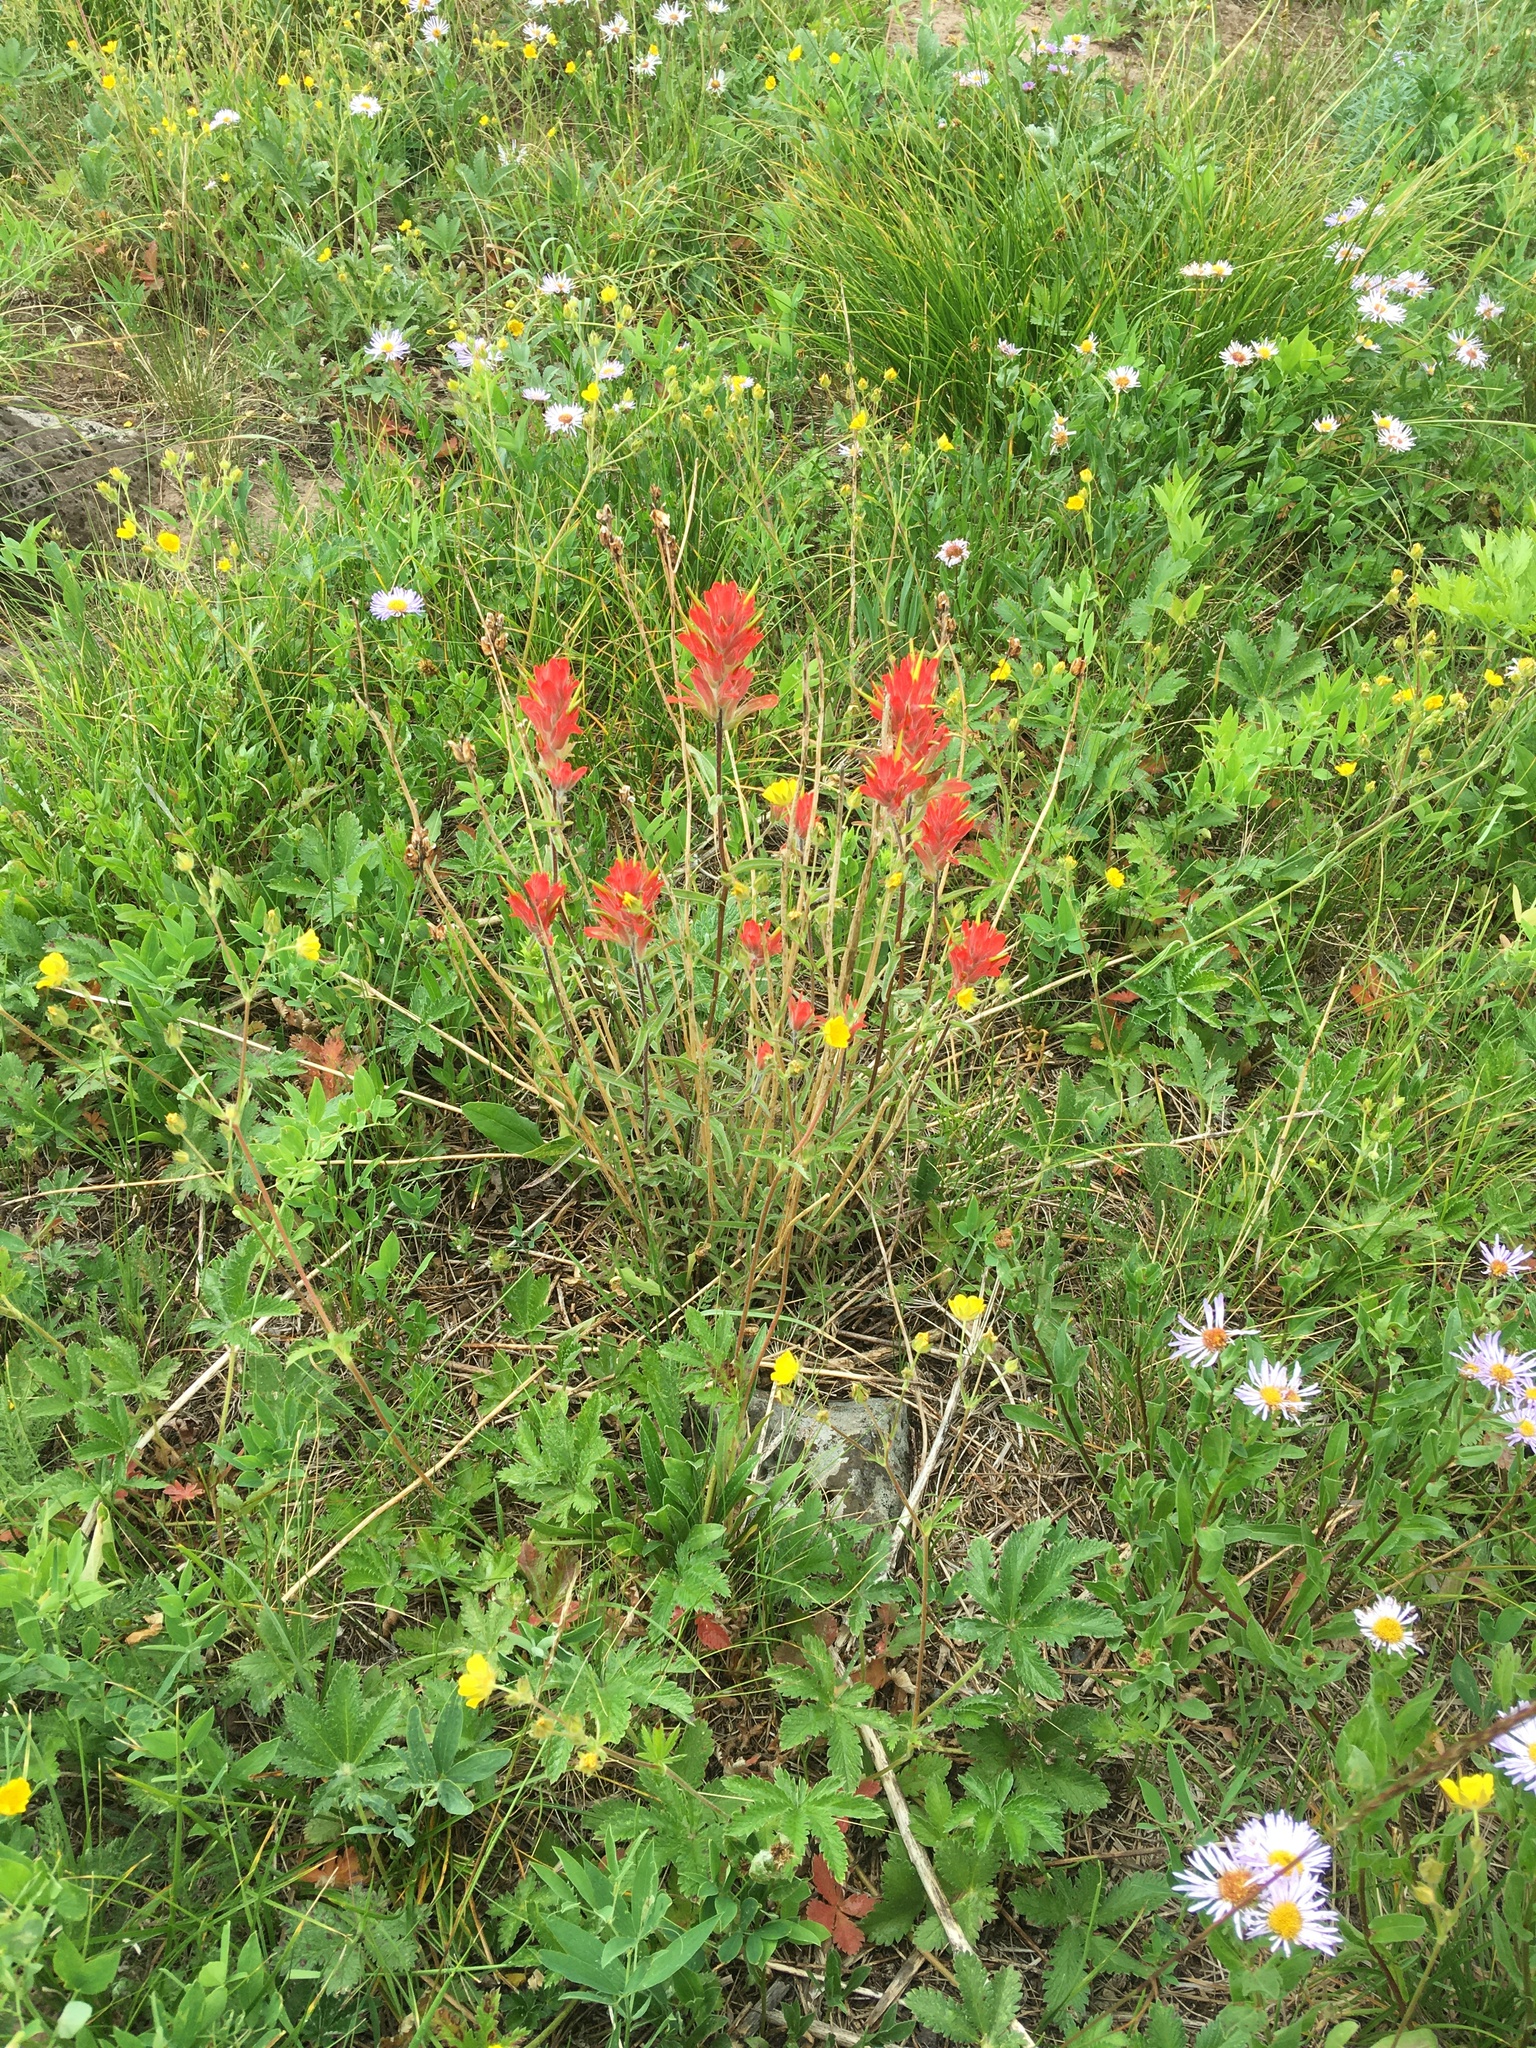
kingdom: Plantae
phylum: Tracheophyta
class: Magnoliopsida
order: Lamiales
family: Orobanchaceae
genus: Castilleja
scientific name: Castilleja miniata
